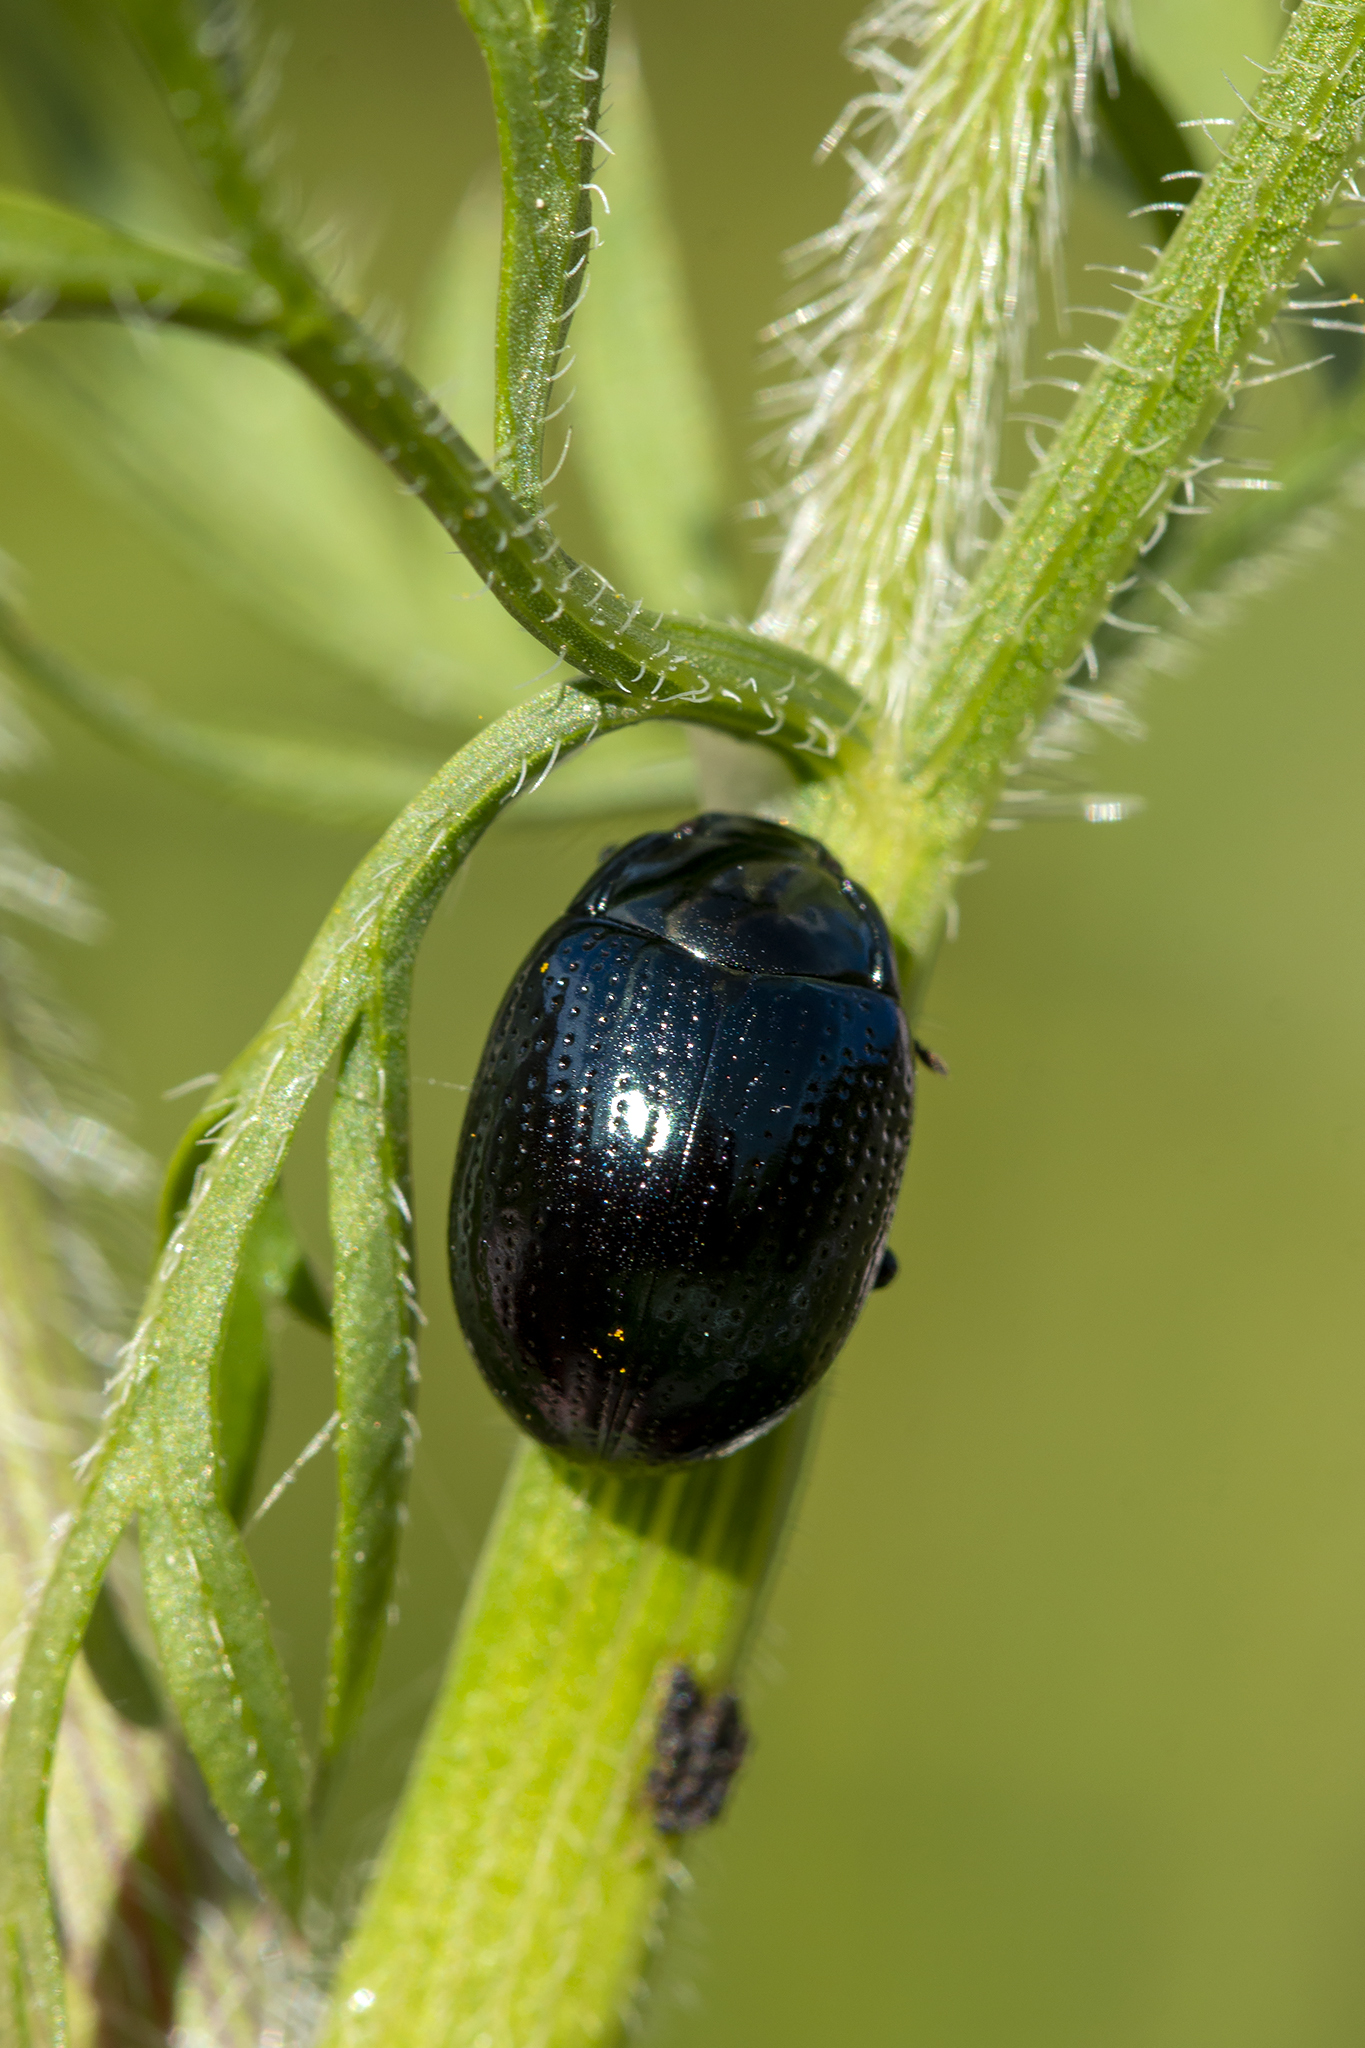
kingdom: Animalia
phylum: Arthropoda
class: Insecta
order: Coleoptera
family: Chrysomelidae
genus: Chrysolina
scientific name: Chrysolina oricalcia
